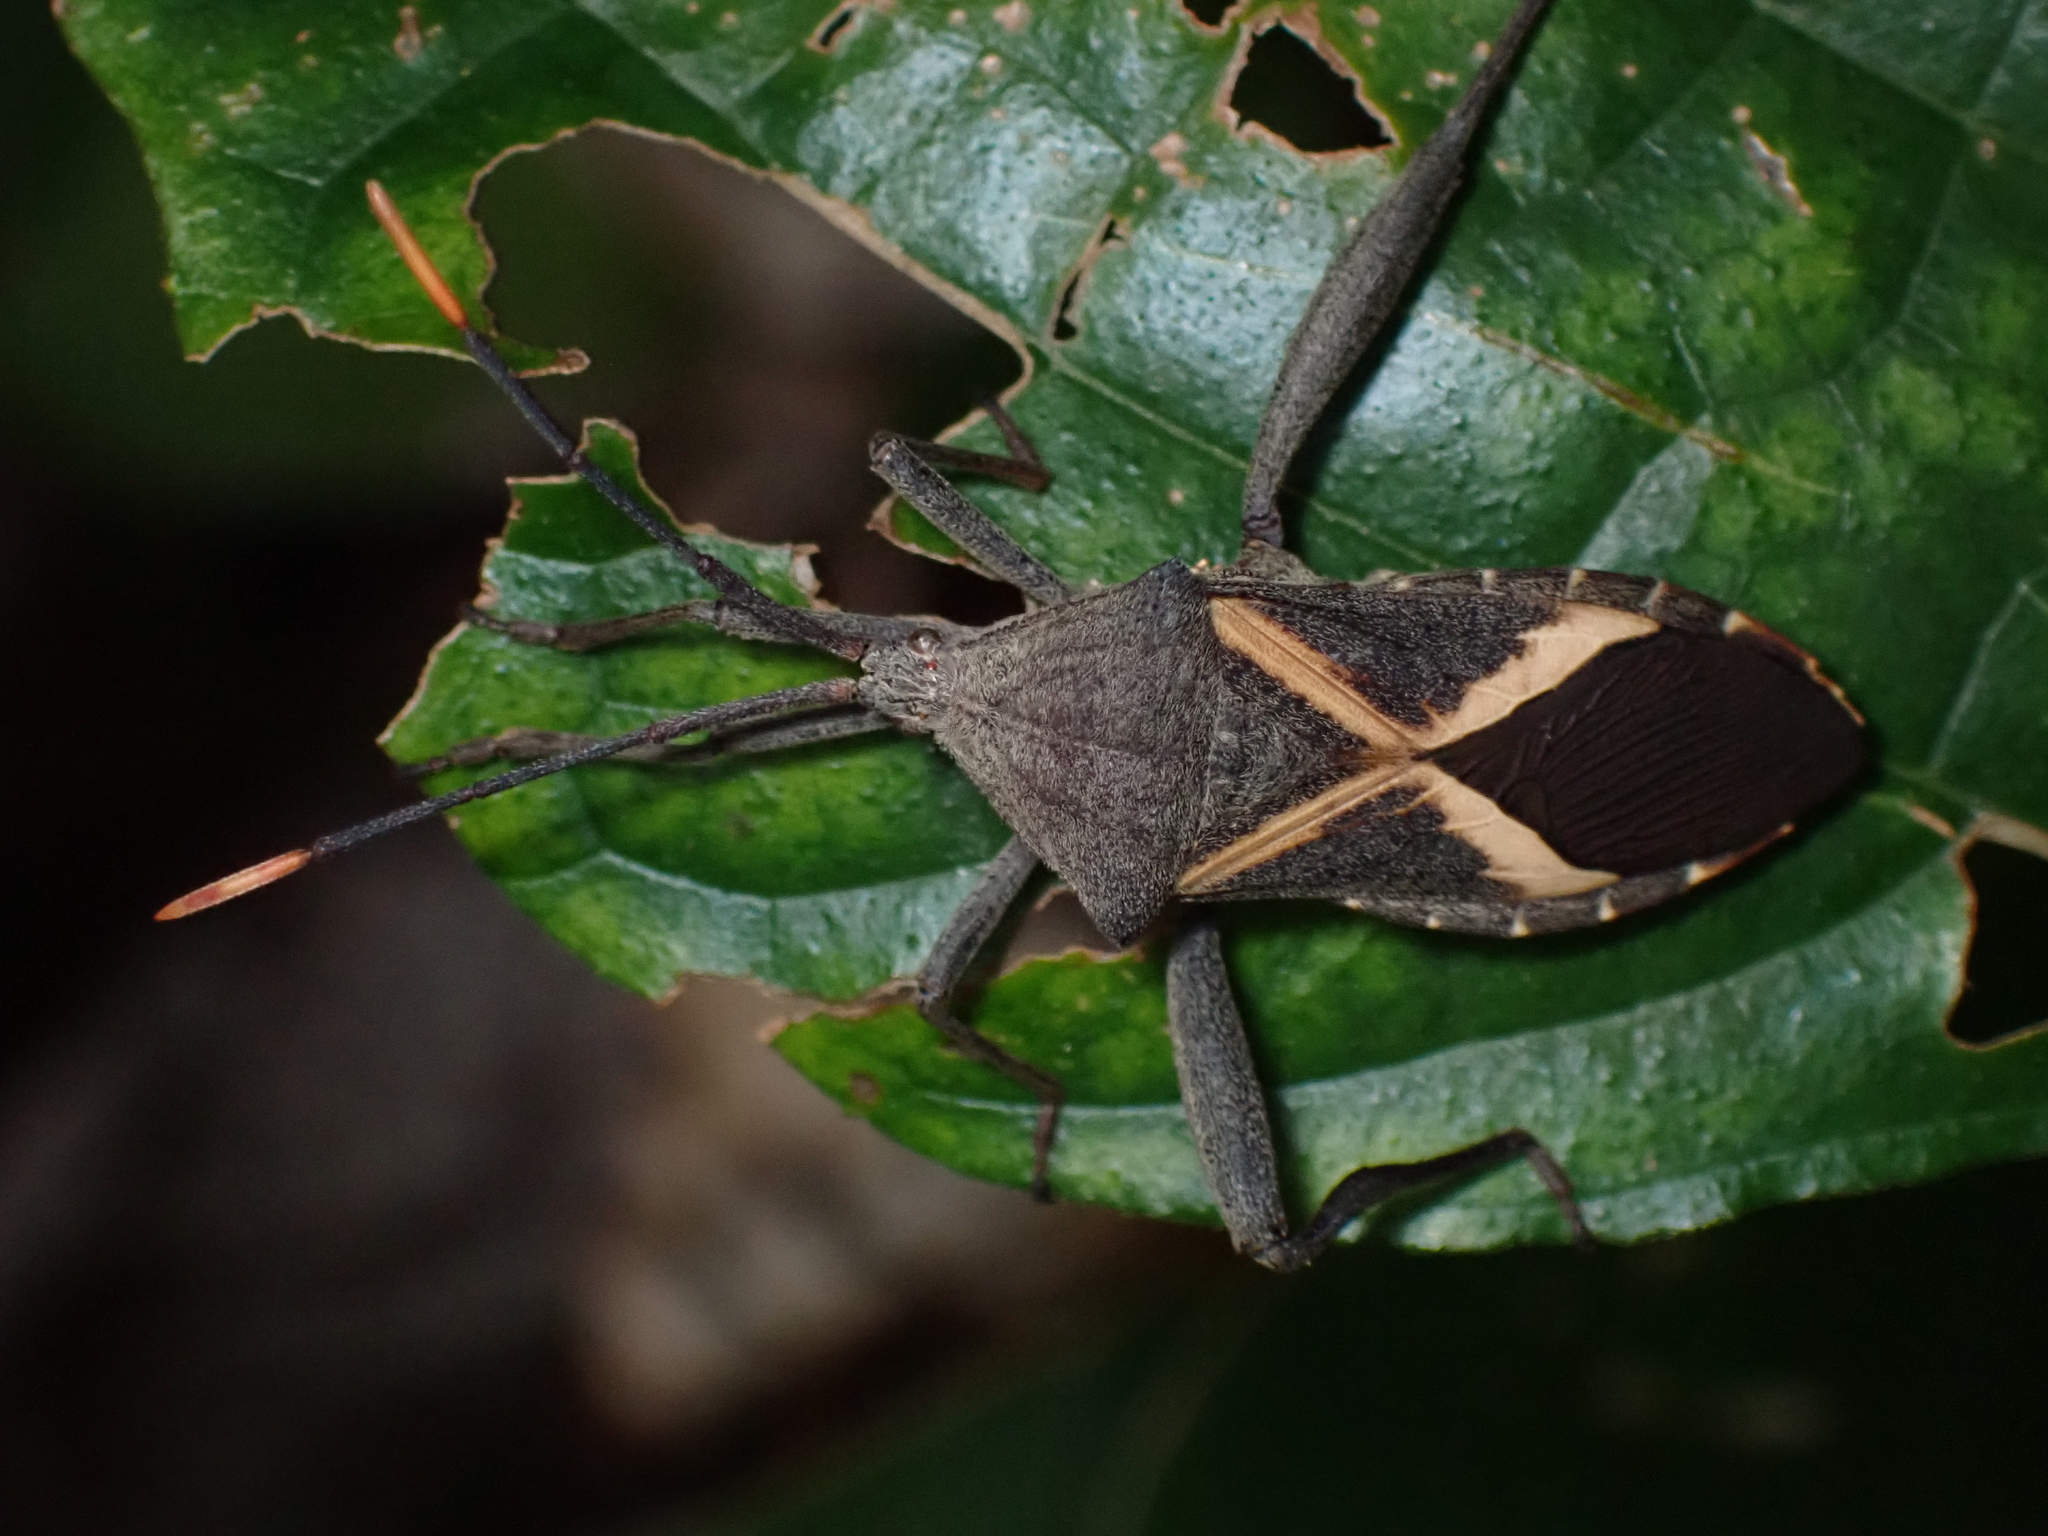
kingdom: Animalia
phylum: Arthropoda
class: Insecta
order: Hemiptera
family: Coreidae
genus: Mictis
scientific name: Mictis profana
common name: Crusader bug
